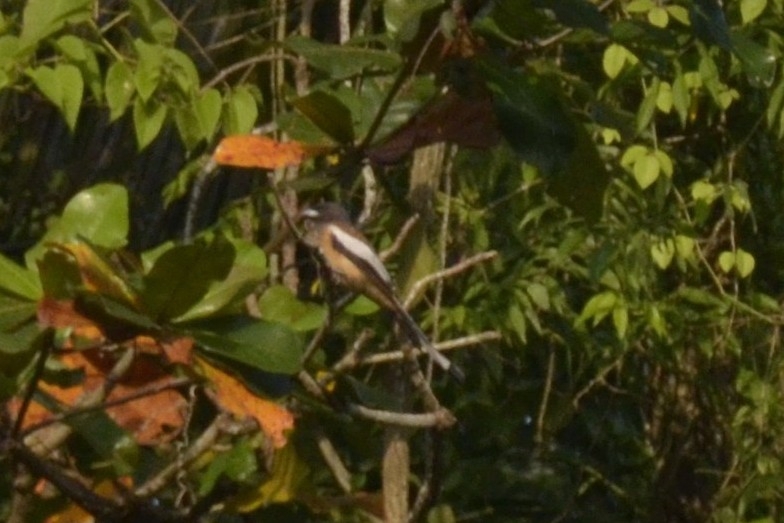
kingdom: Animalia
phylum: Chordata
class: Aves
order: Passeriformes
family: Corvidae
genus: Dendrocitta
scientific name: Dendrocitta vagabunda
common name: Rufous treepie
